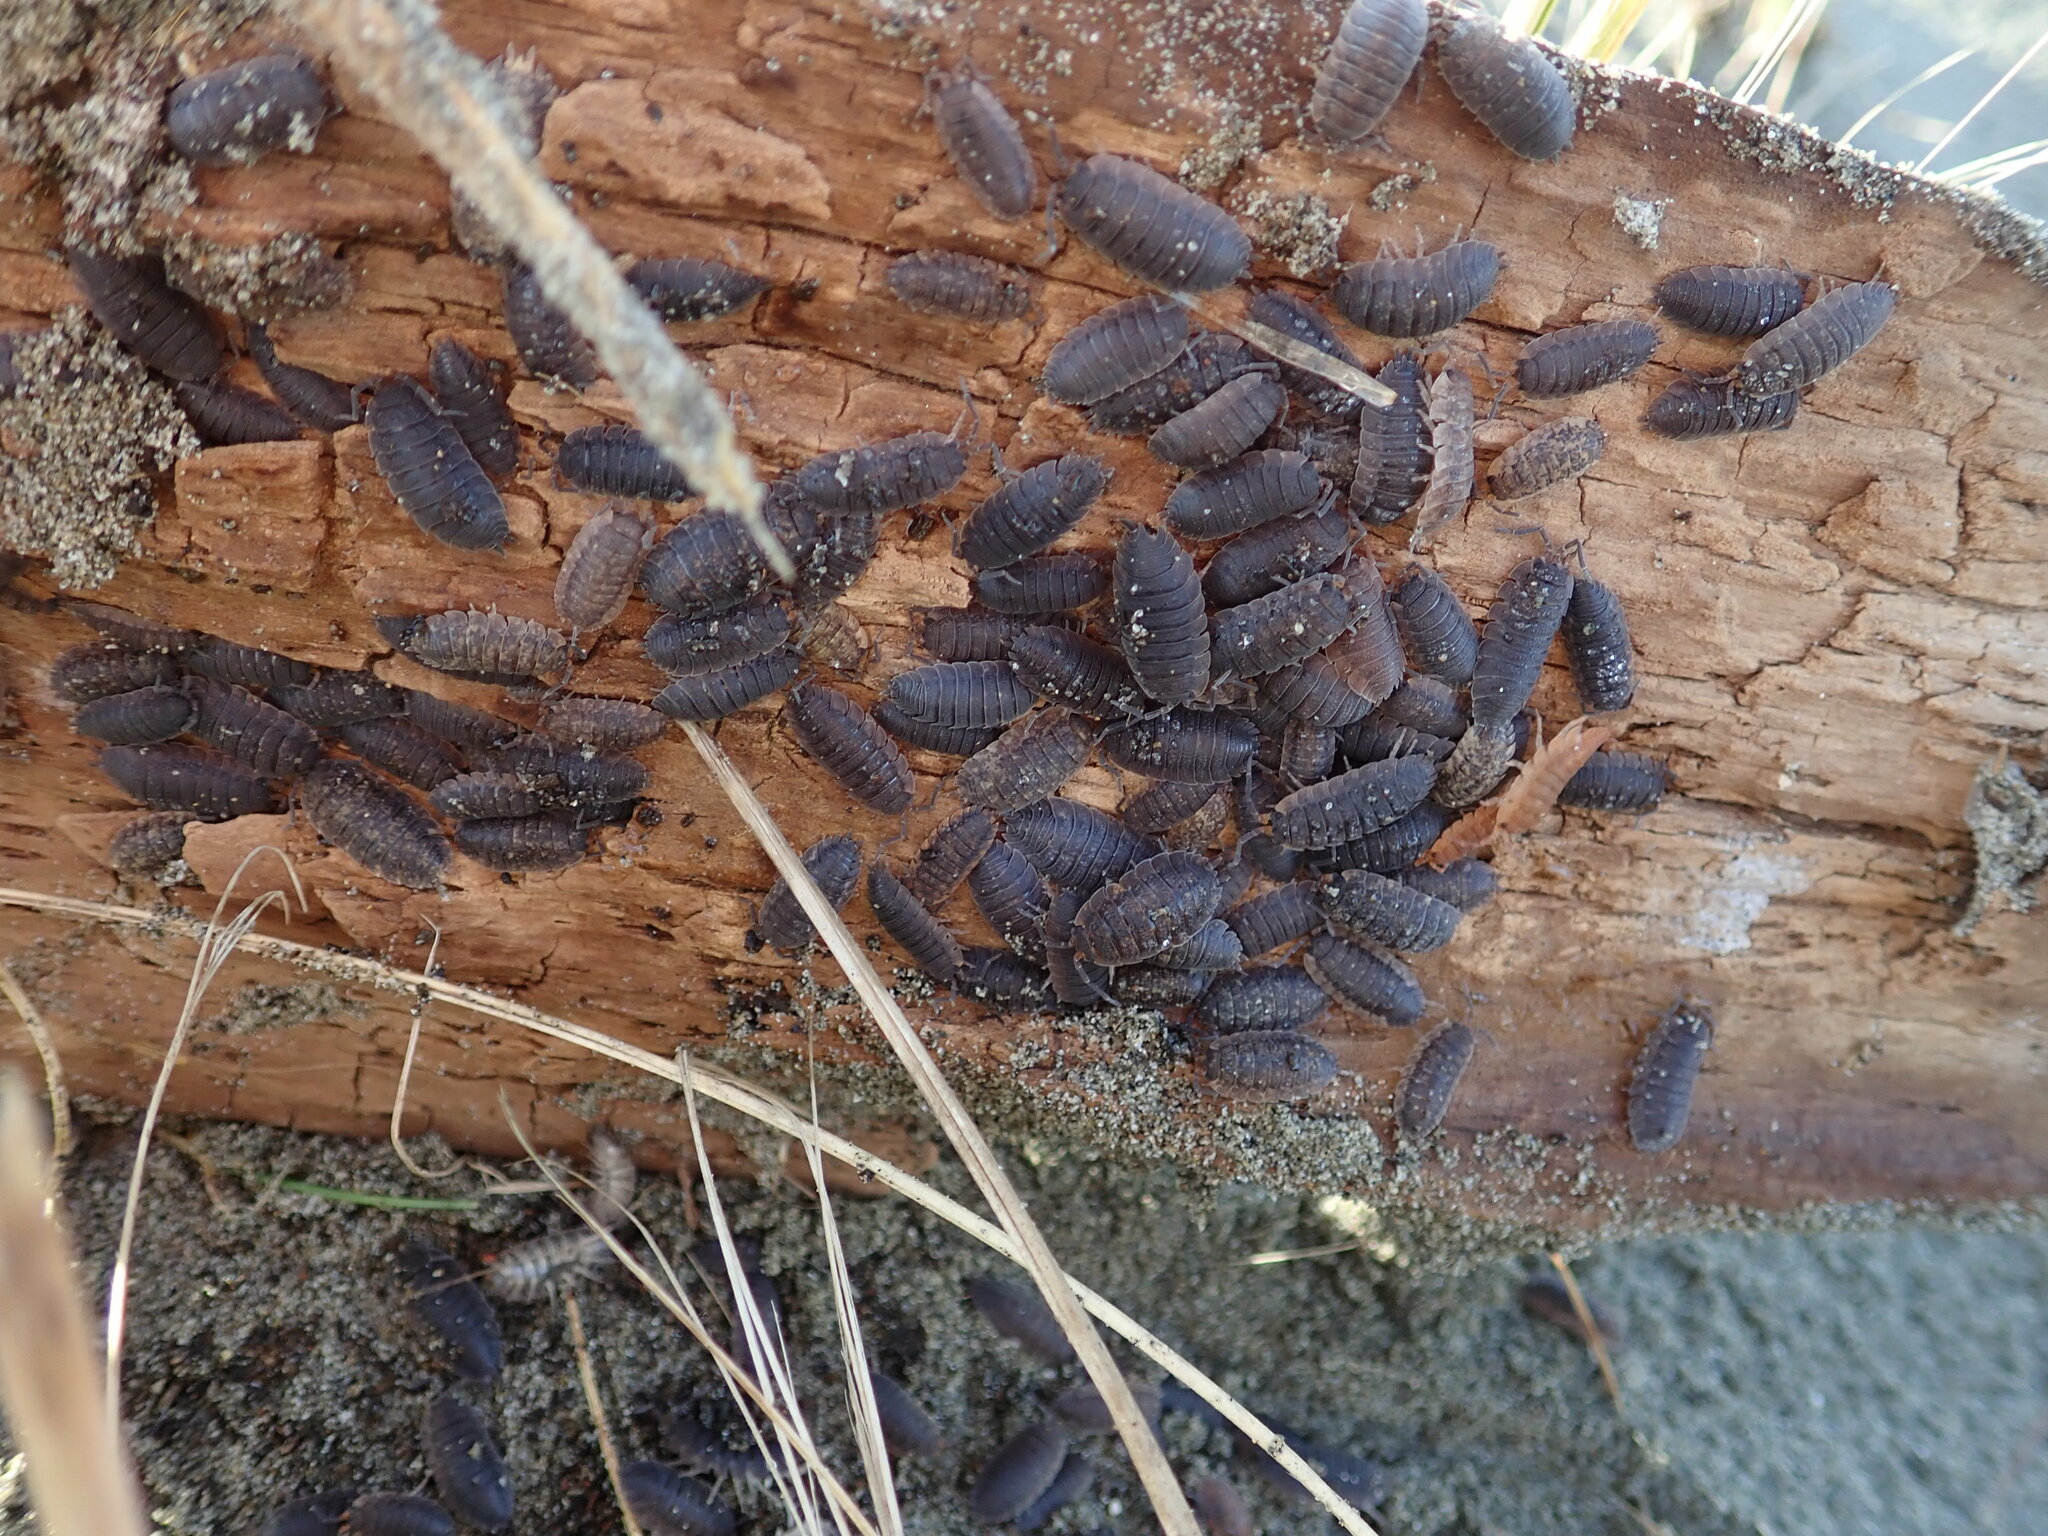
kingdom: Animalia
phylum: Arthropoda
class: Malacostraca
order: Isopoda
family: Porcellionidae
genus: Porcellio
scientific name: Porcellio scaber
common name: Common rough woodlouse
